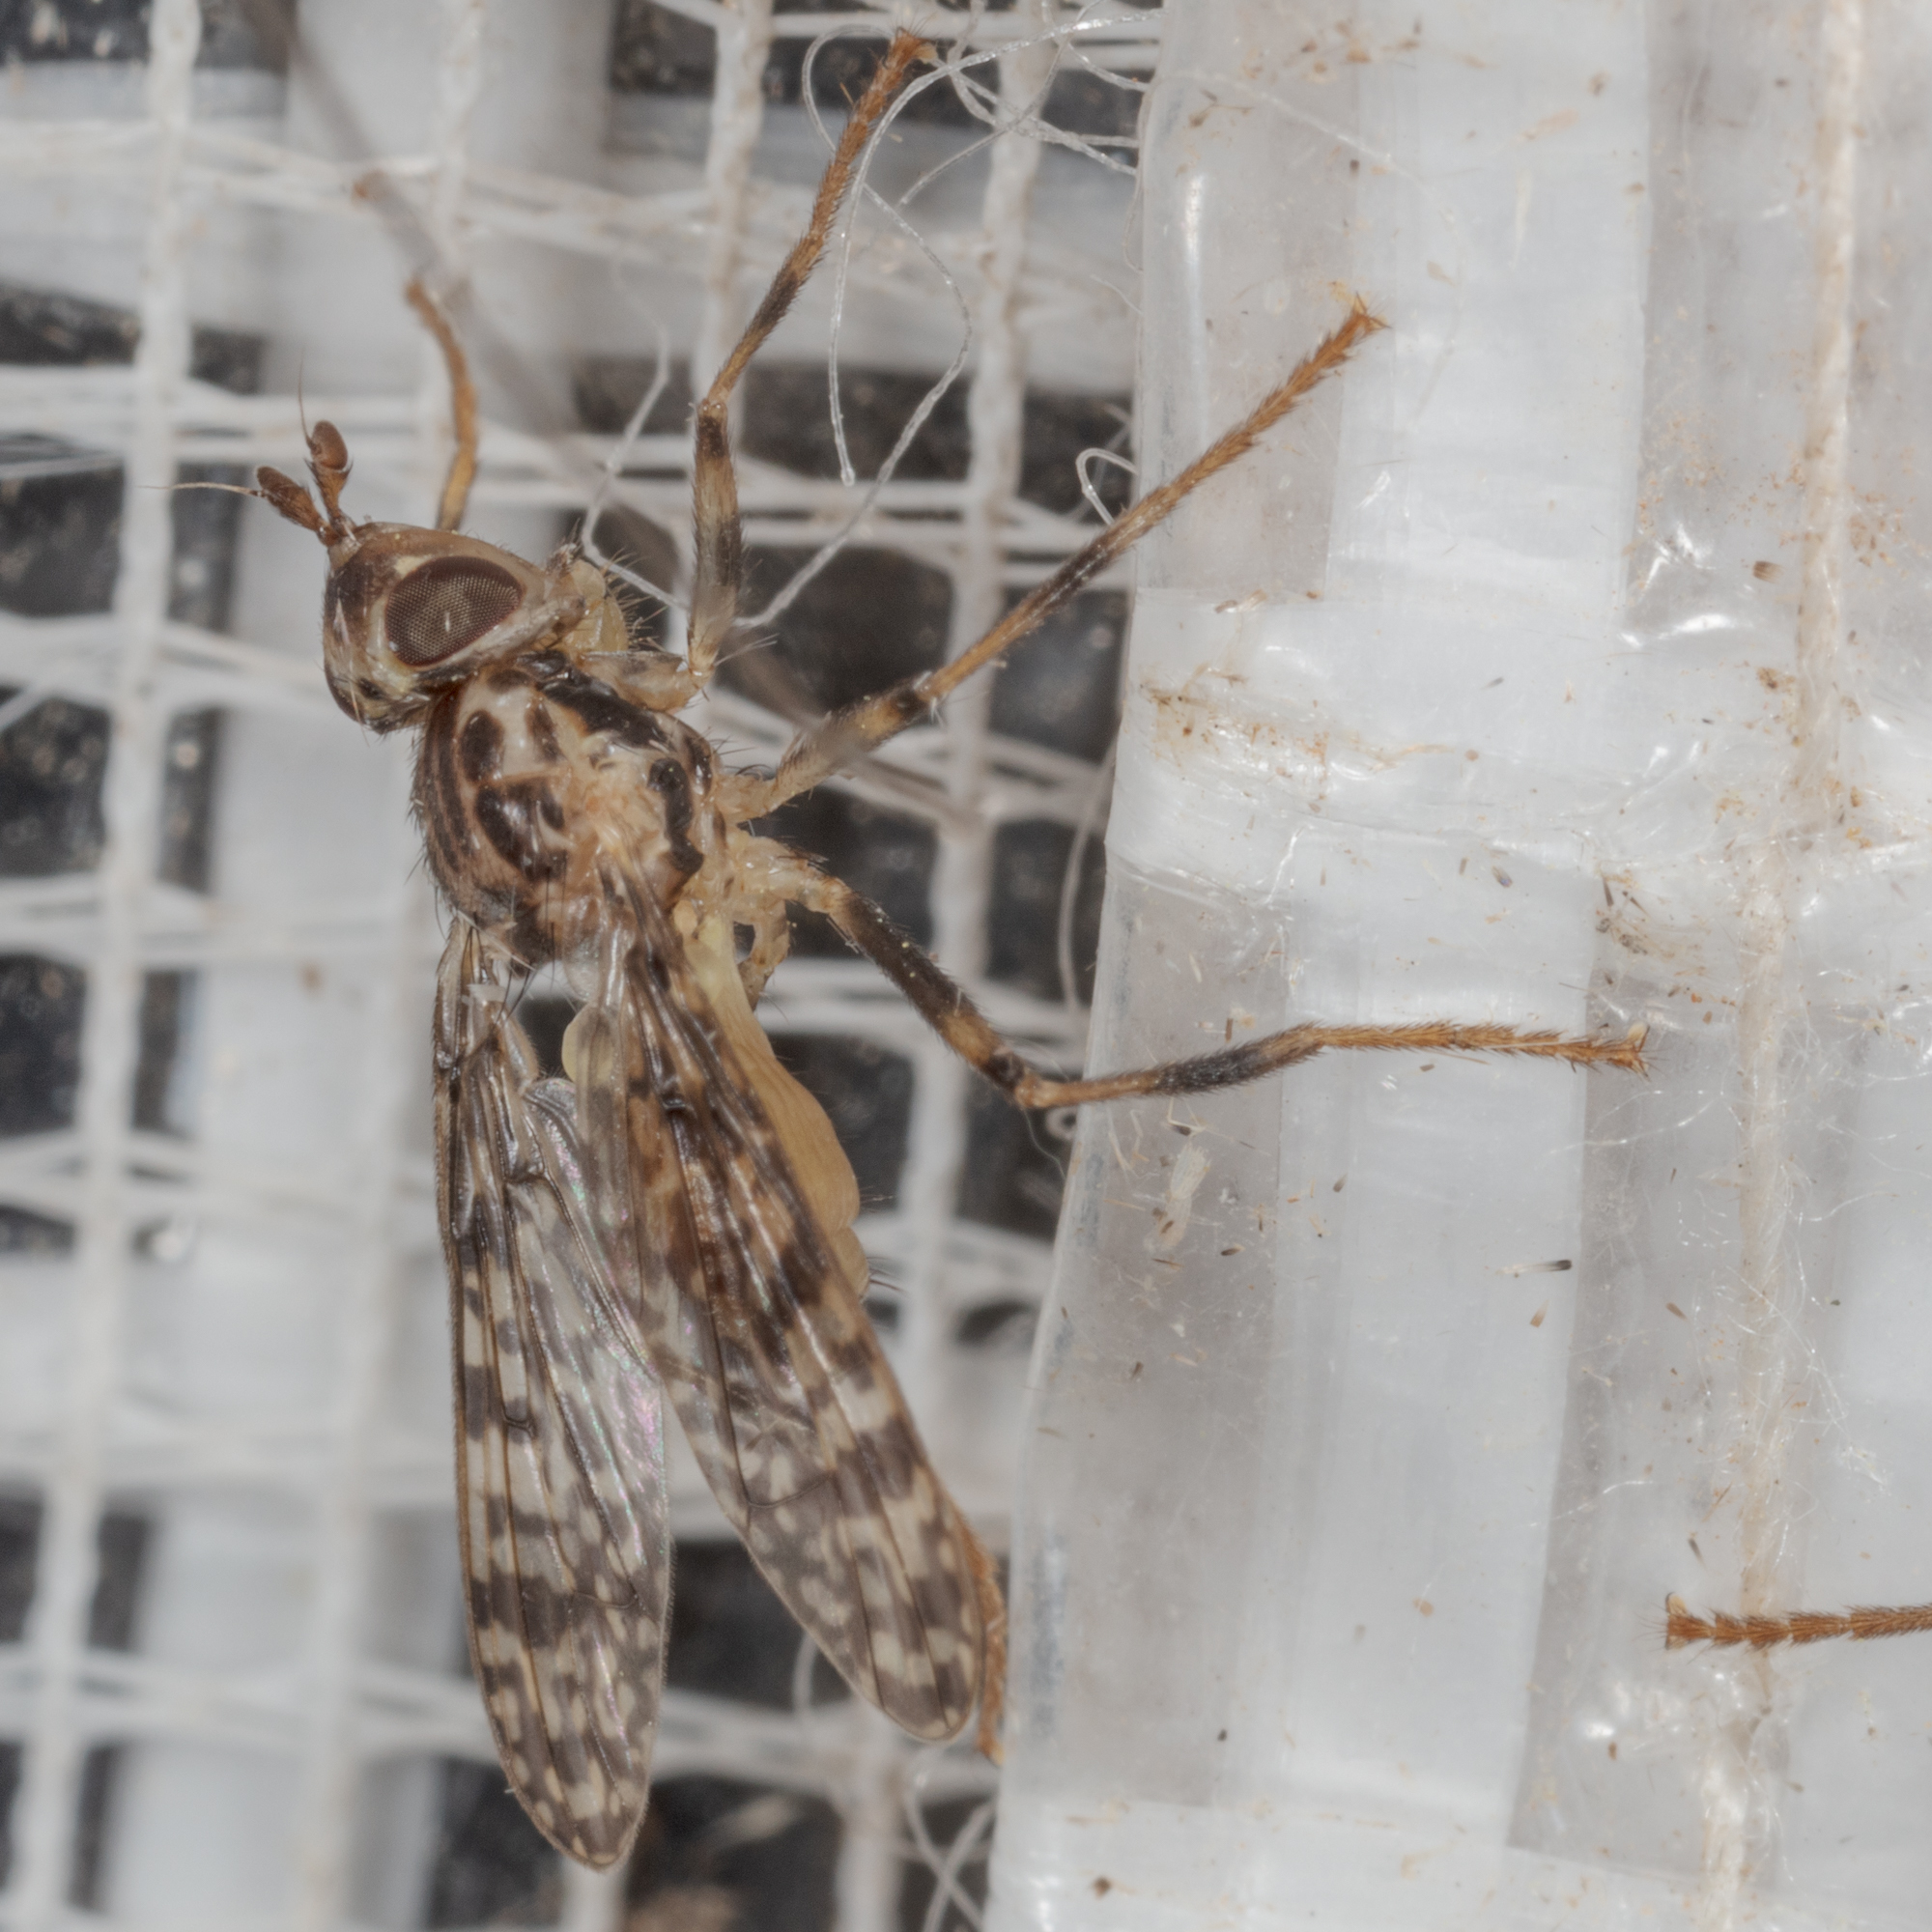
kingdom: Animalia
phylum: Arthropoda
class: Insecta
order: Diptera
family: Pyrgotidae
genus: Boreothrinax
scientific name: Boreothrinax
